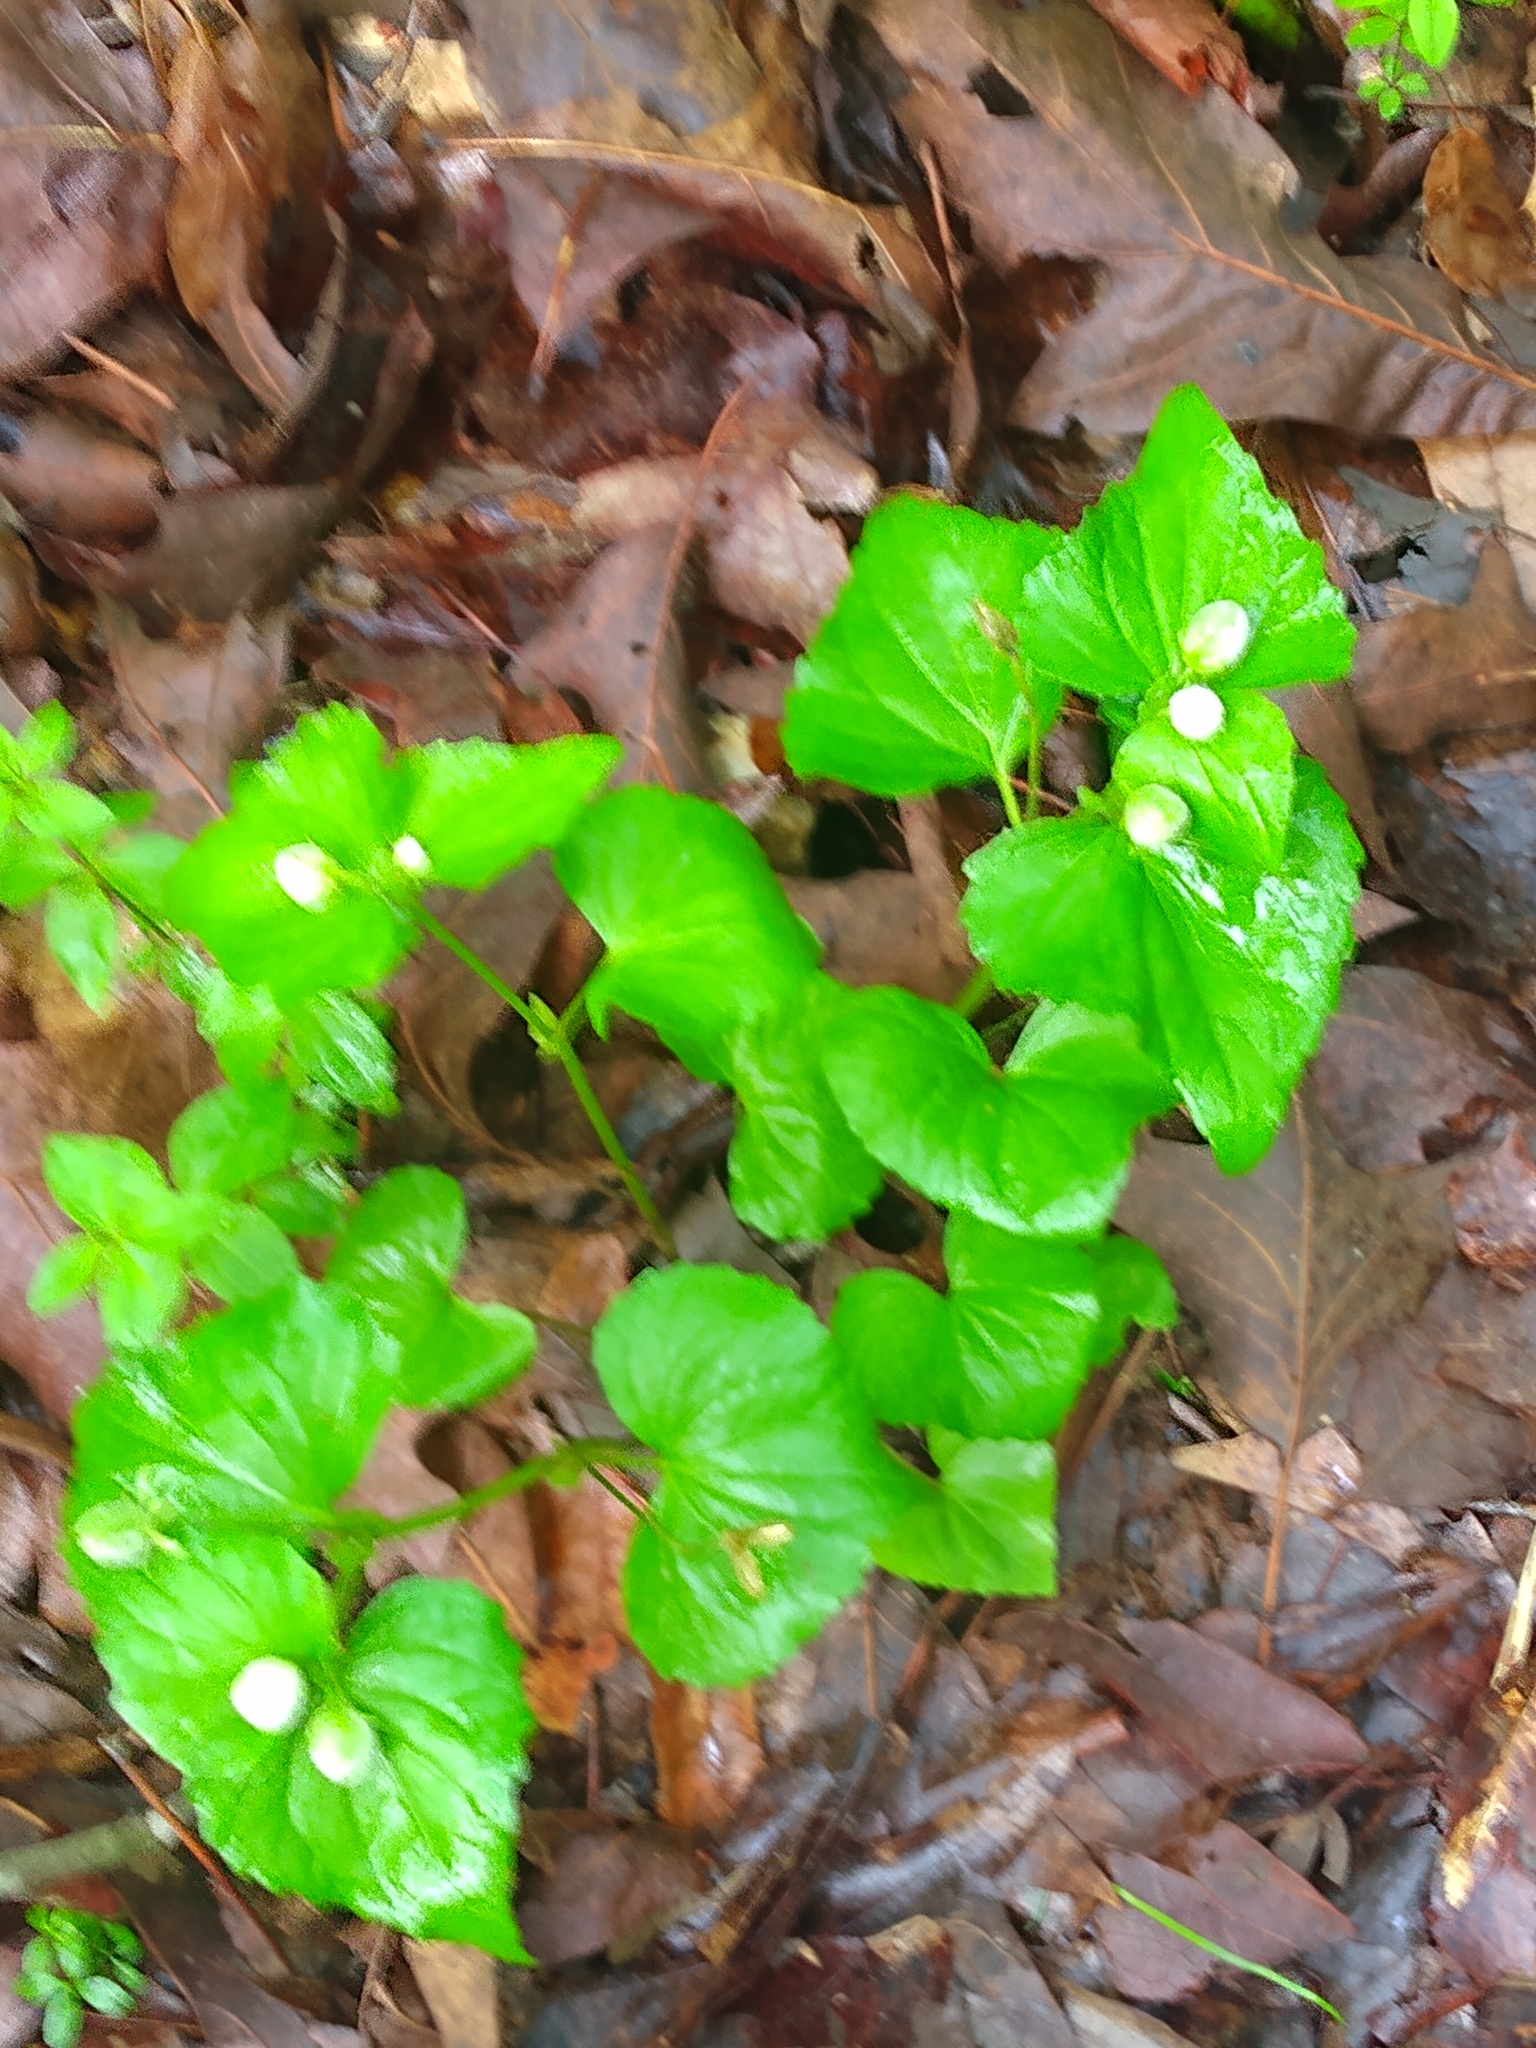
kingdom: Plantae
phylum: Tracheophyta
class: Magnoliopsida
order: Malpighiales
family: Violaceae
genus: Viola
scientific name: Viola eriocarpa
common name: Smooth yellow violet
